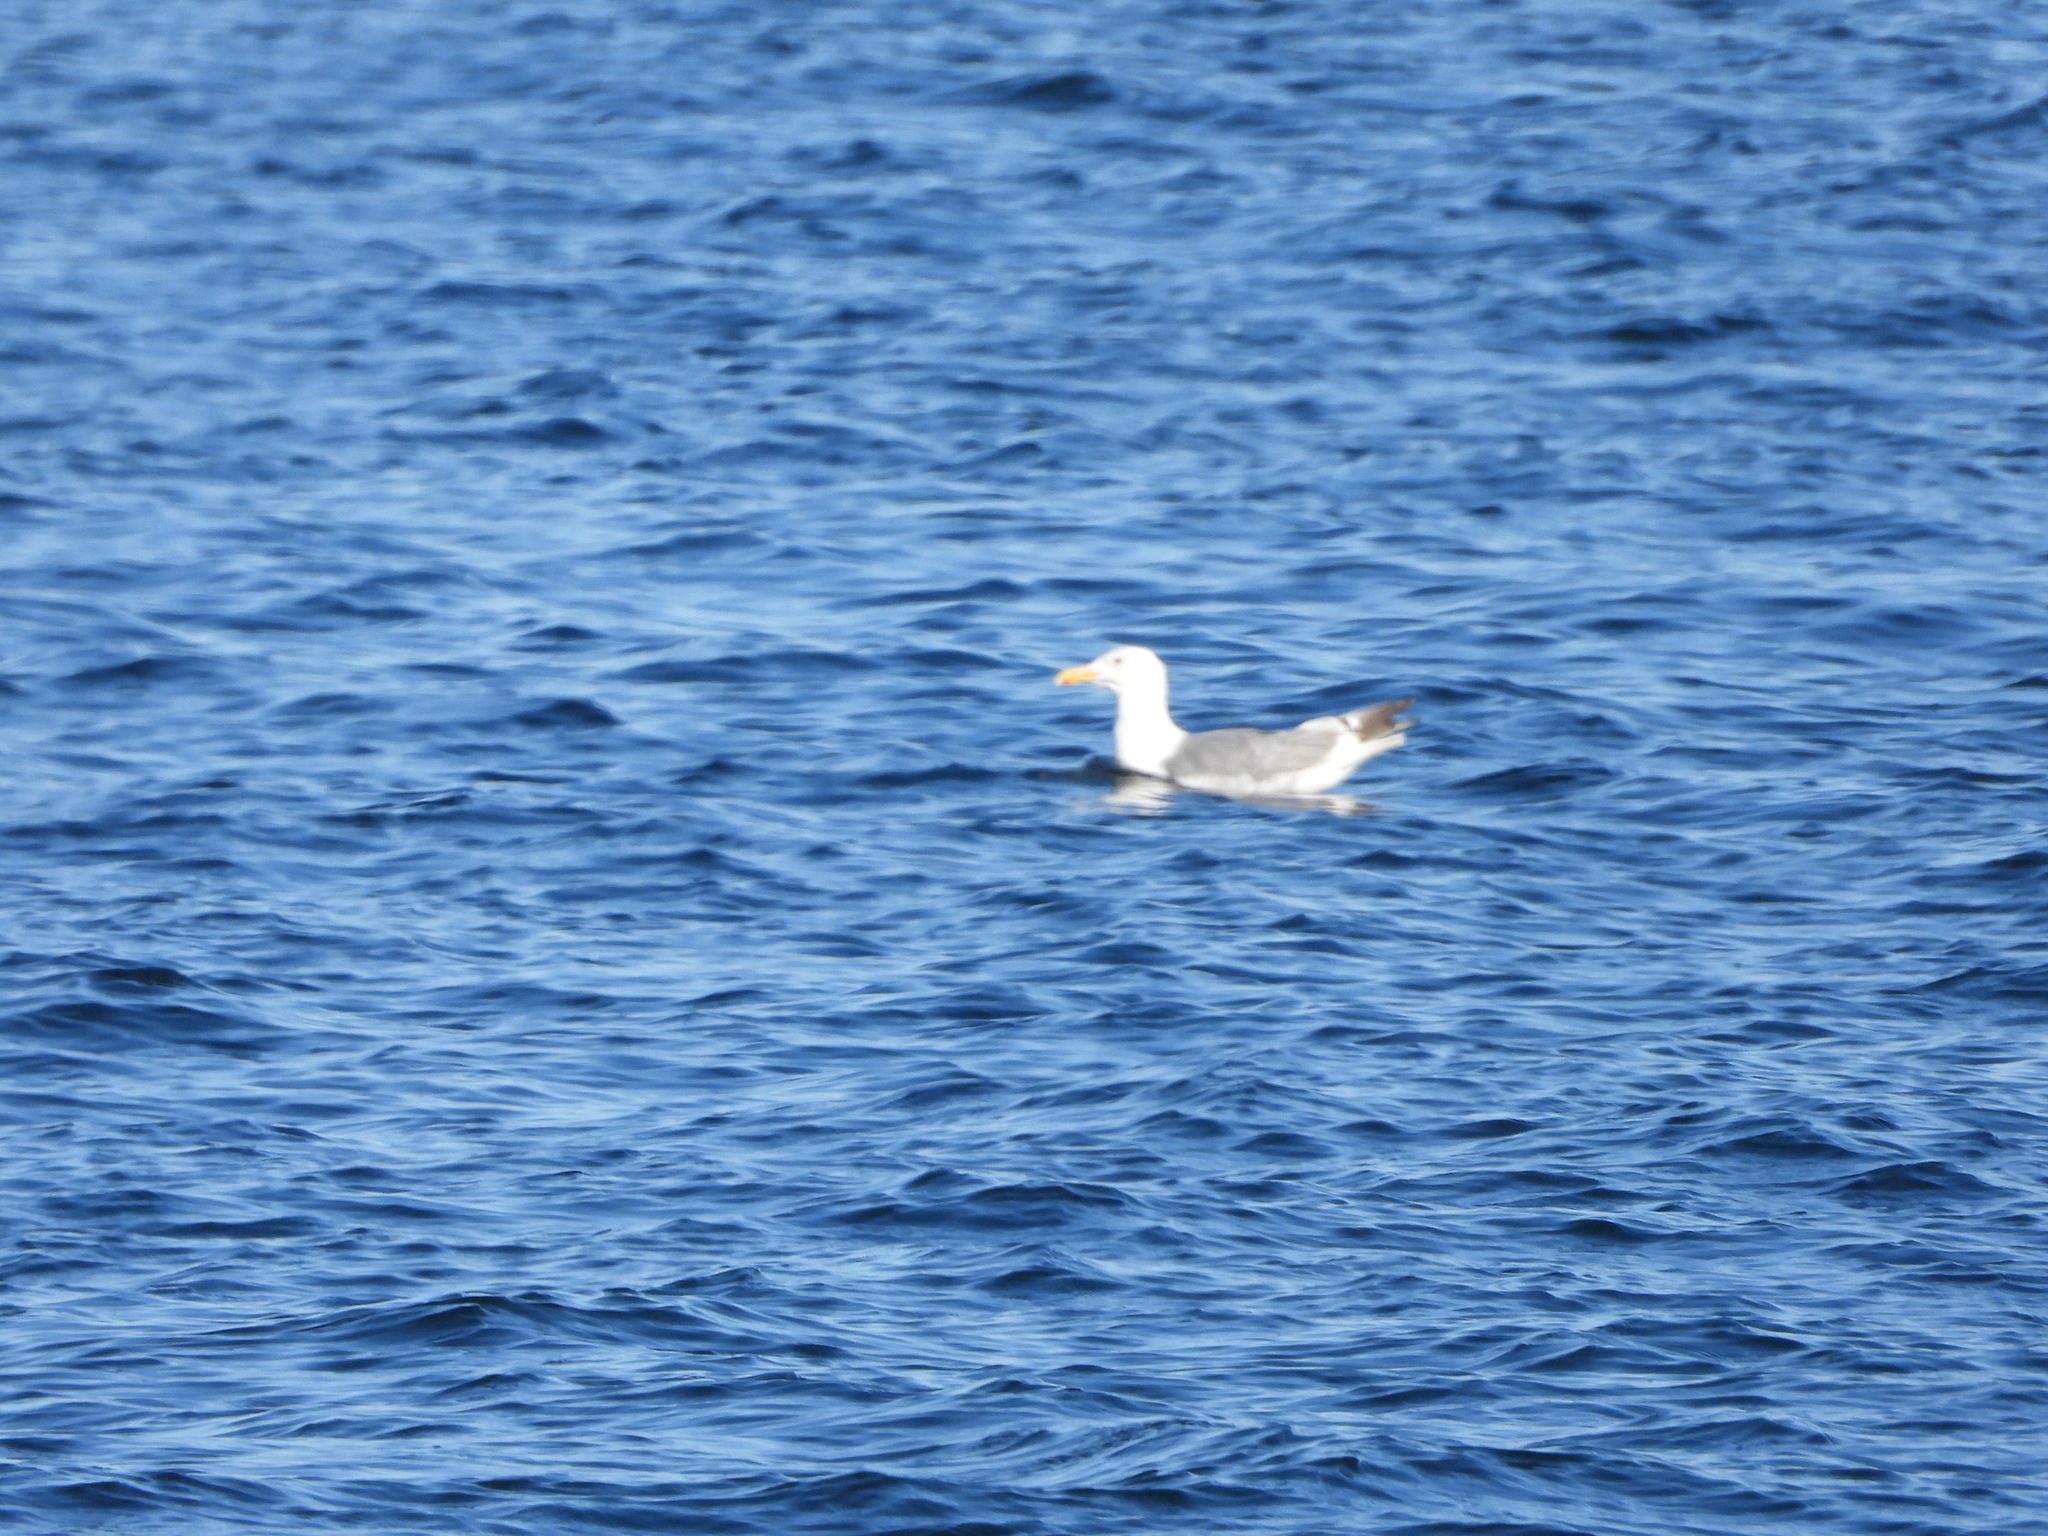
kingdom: Animalia
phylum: Chordata
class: Aves
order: Charadriiformes
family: Laridae
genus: Larus
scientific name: Larus
